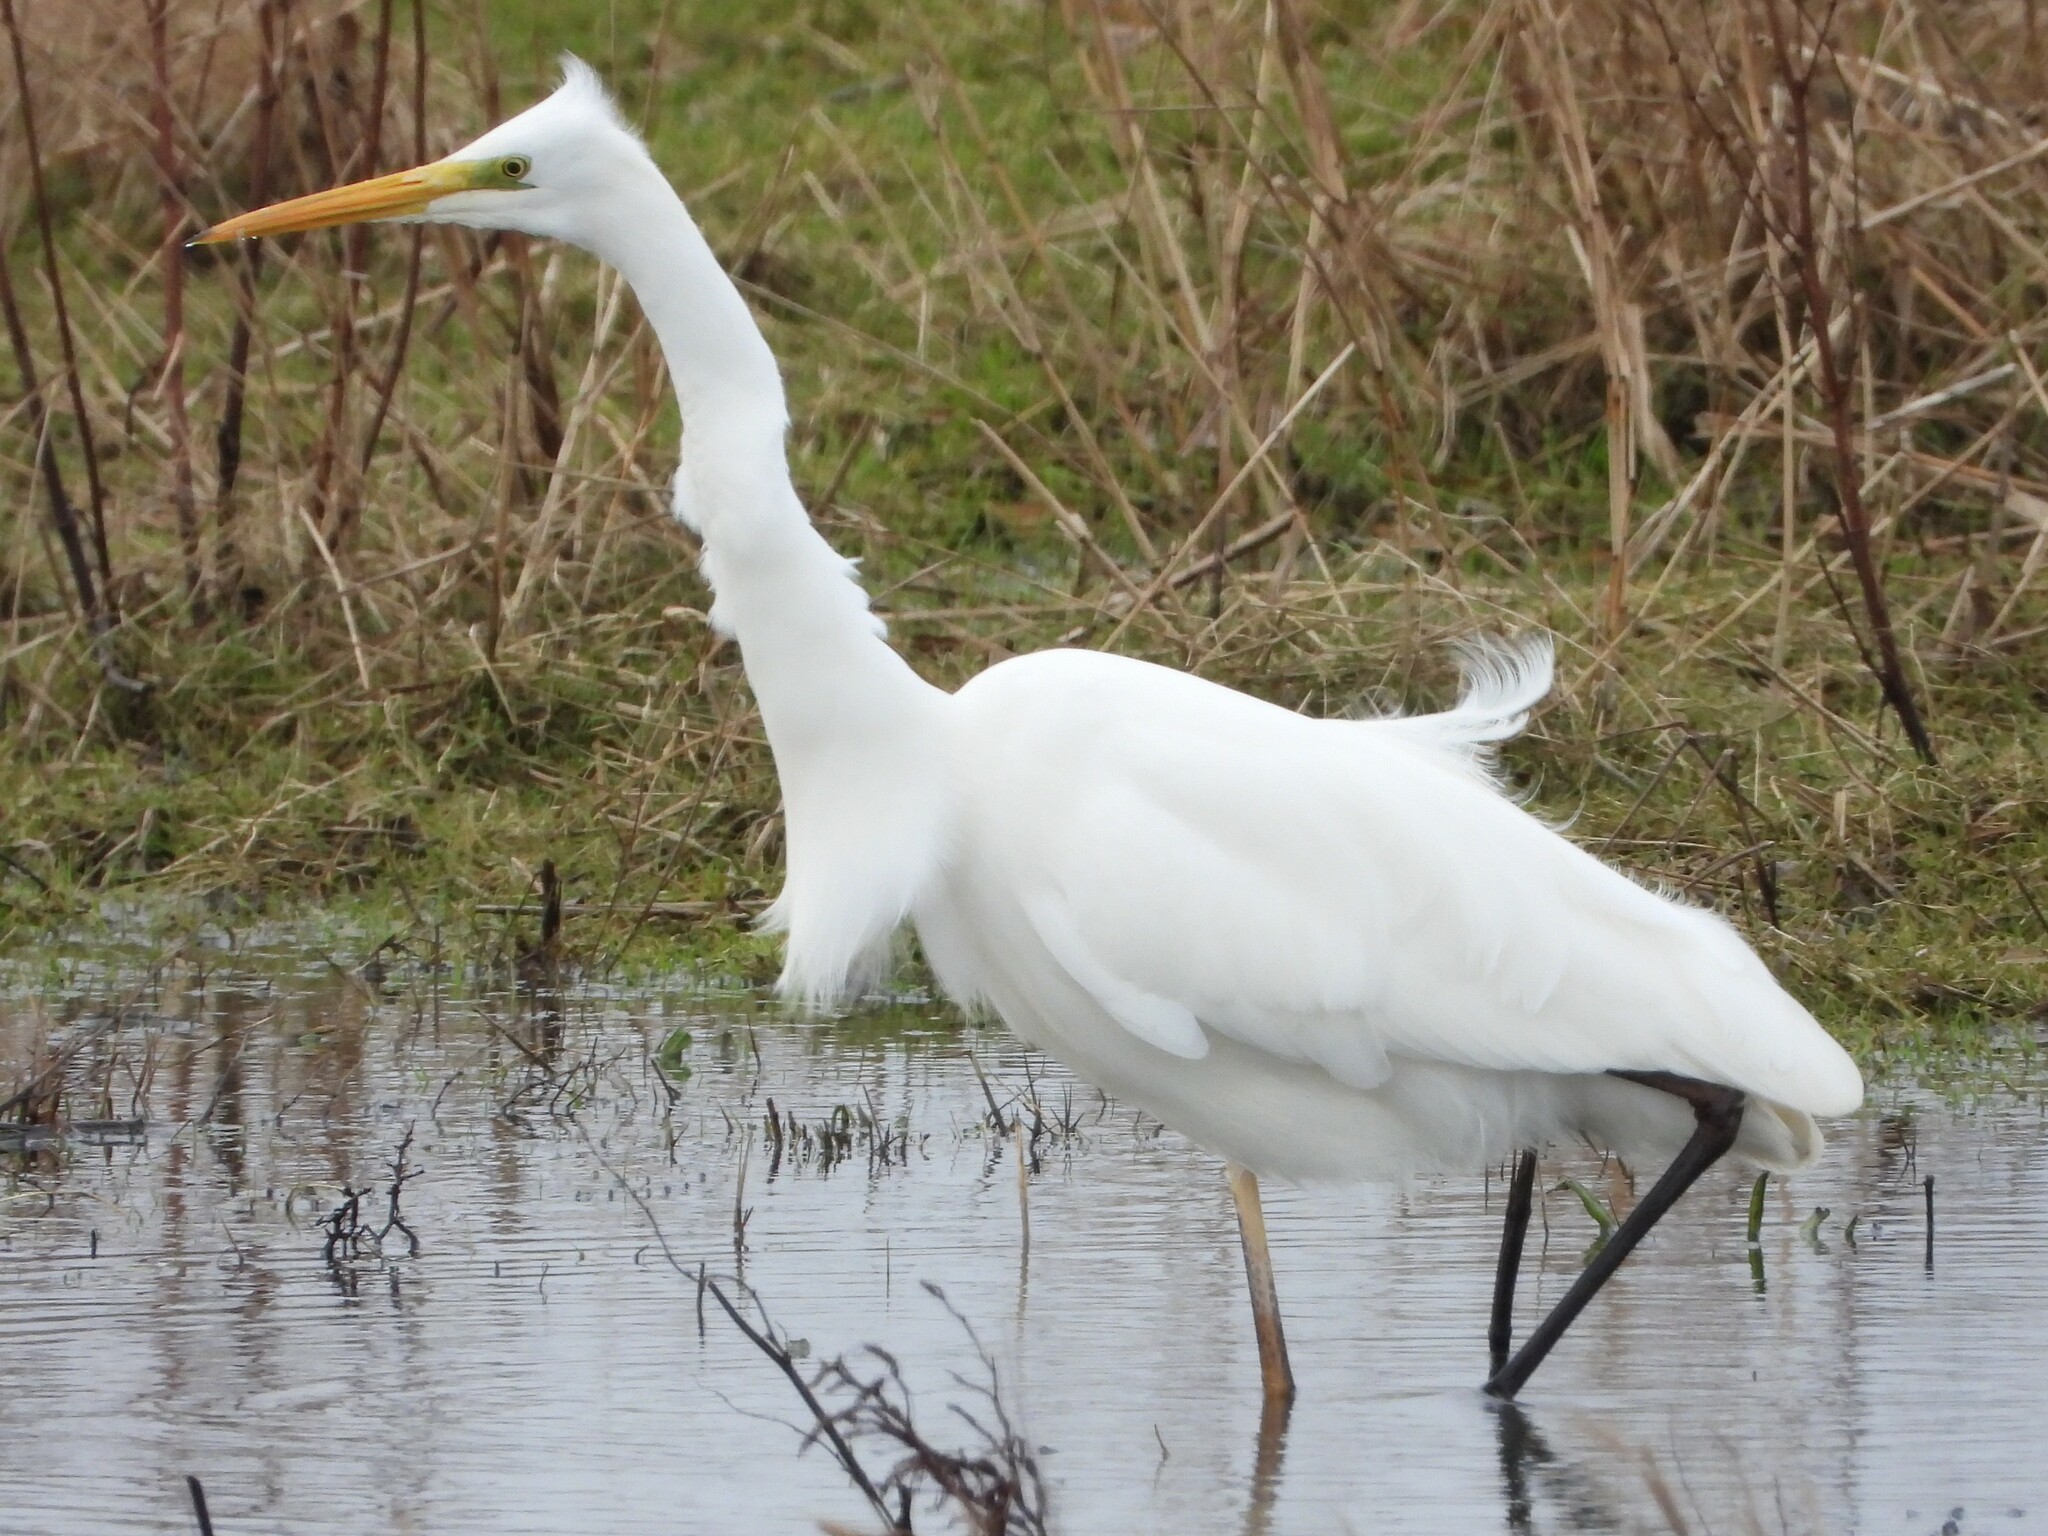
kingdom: Animalia
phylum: Chordata
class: Aves
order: Pelecaniformes
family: Ardeidae
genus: Ardea
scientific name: Ardea alba
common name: Great egret
